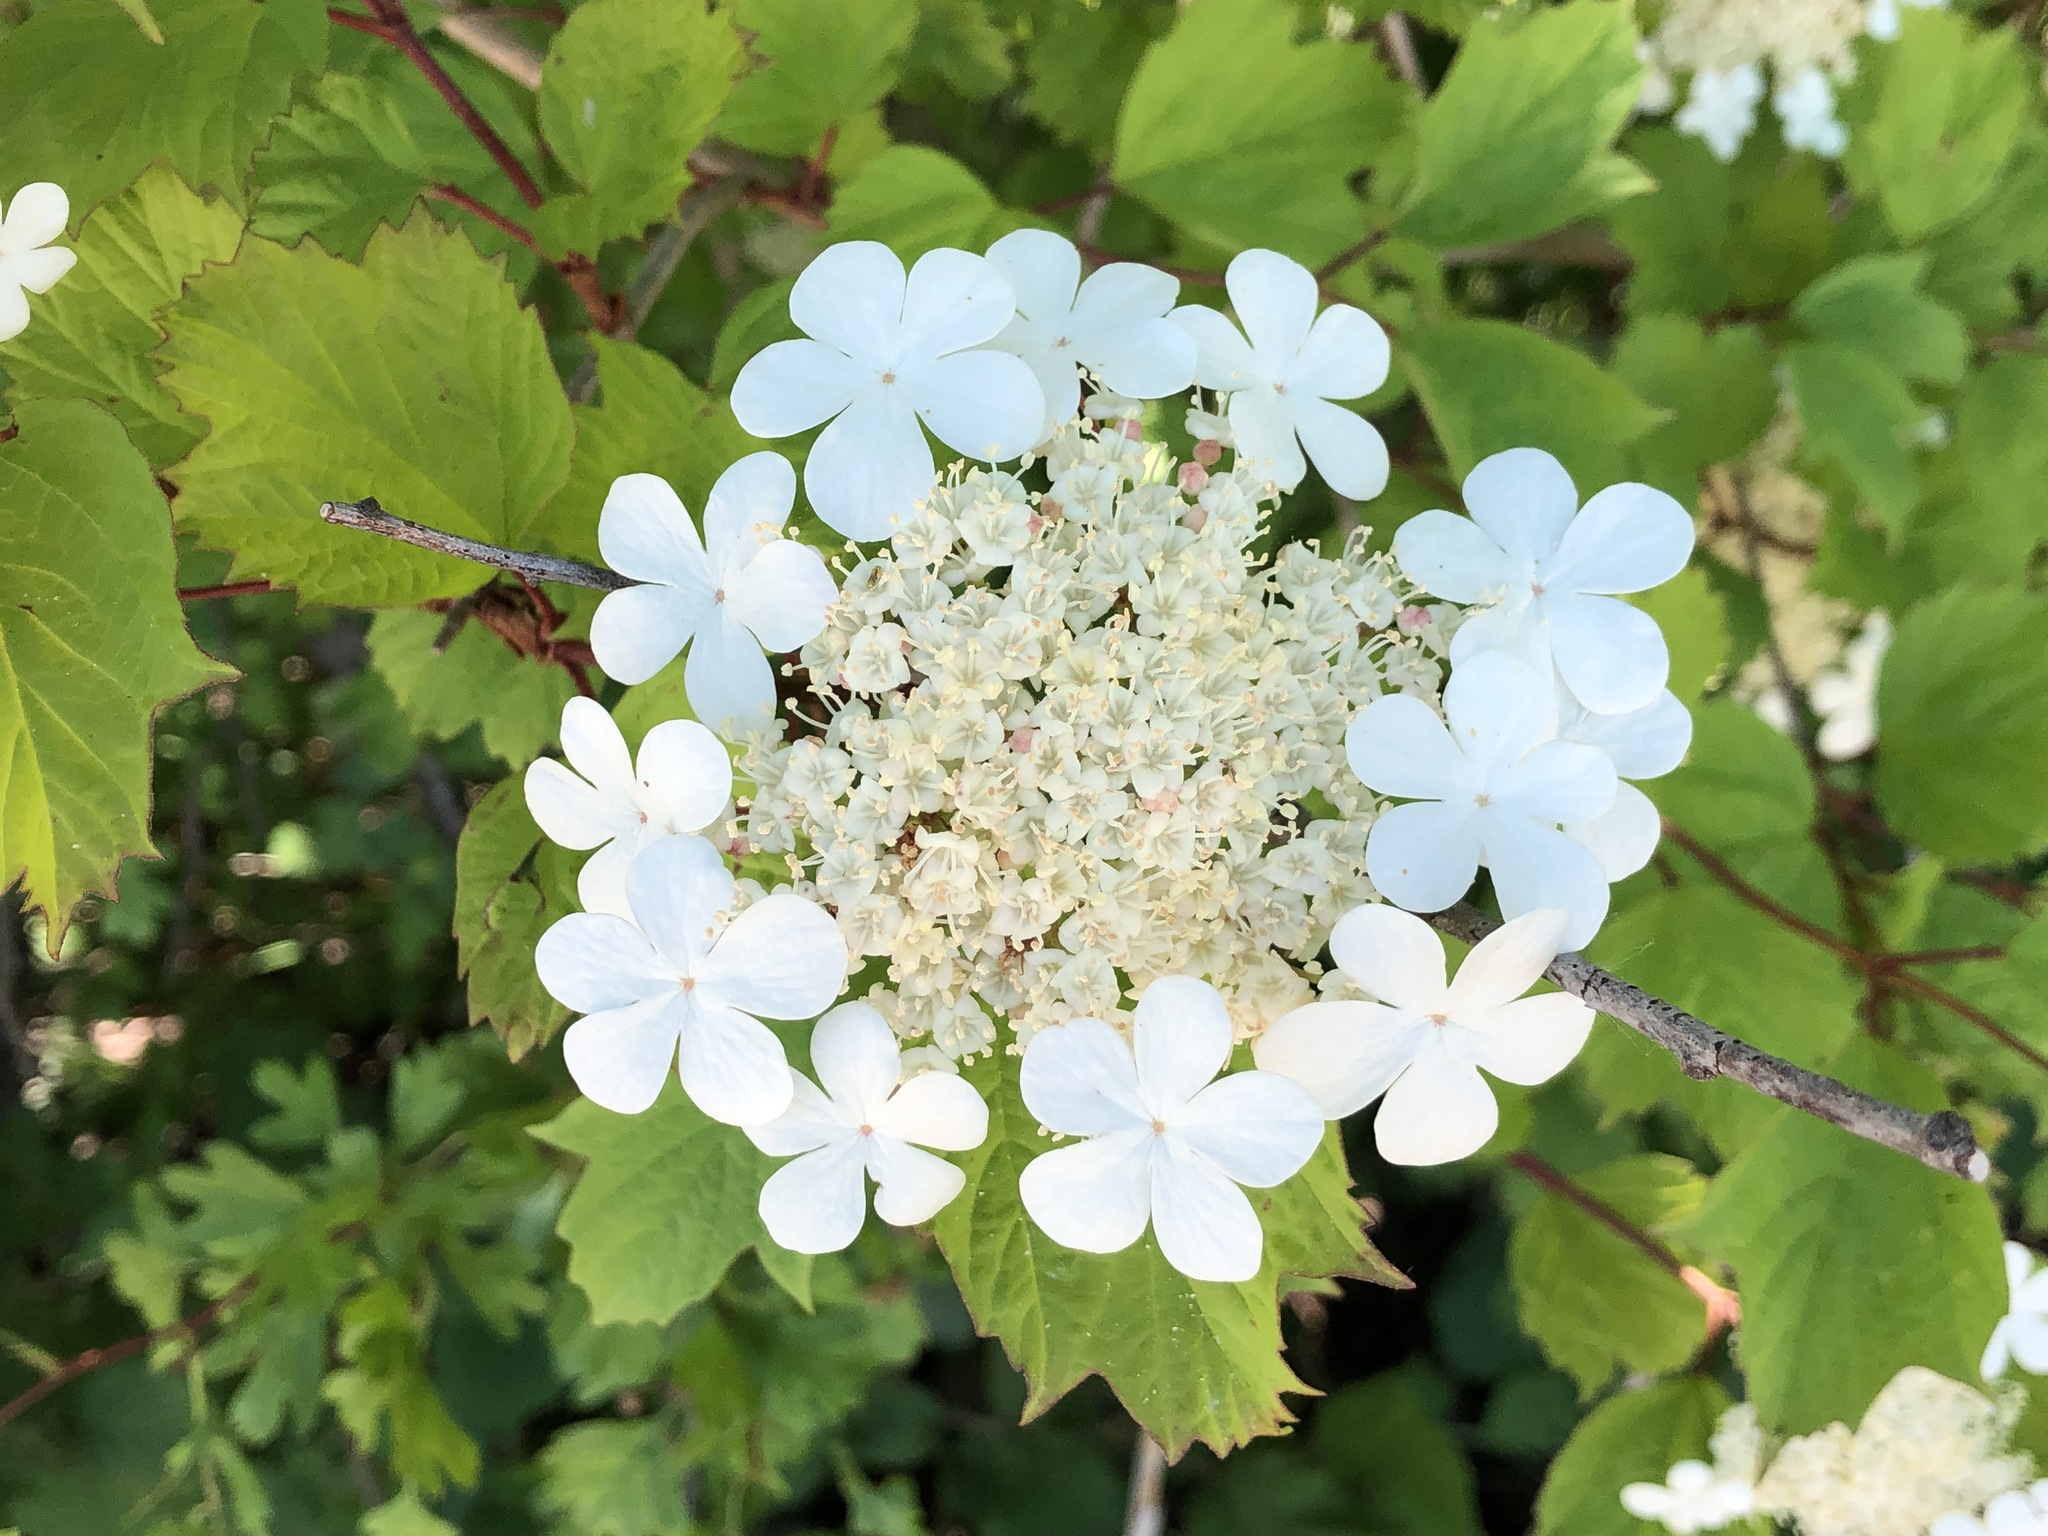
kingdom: Plantae
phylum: Tracheophyta
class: Magnoliopsida
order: Dipsacales
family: Viburnaceae
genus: Viburnum
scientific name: Viburnum opulus
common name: Guelder-rose
